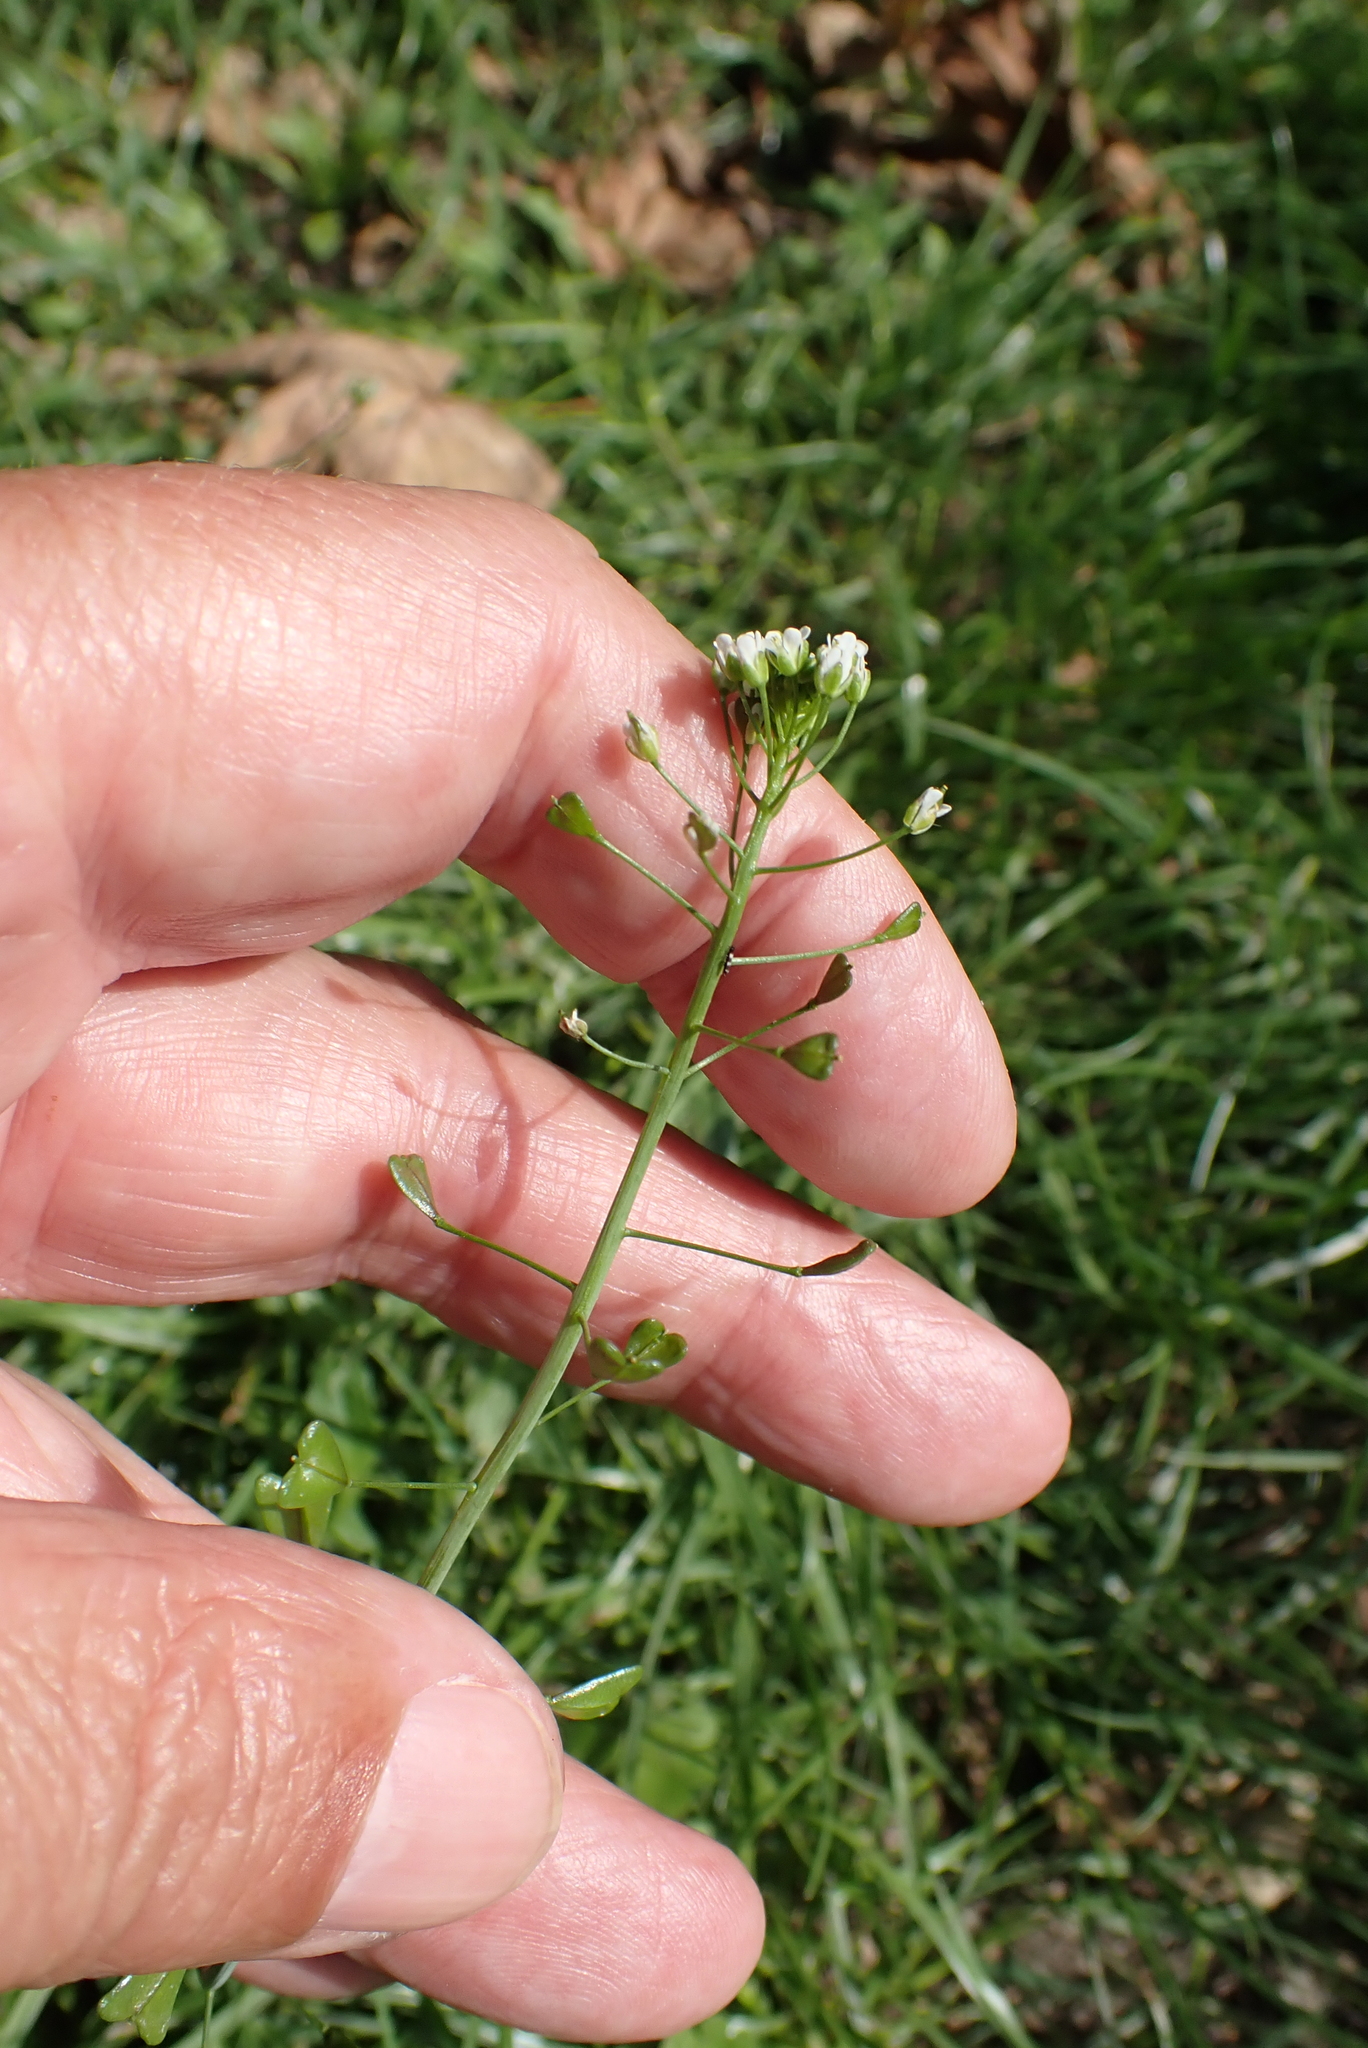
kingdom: Plantae
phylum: Tracheophyta
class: Magnoliopsida
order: Brassicales
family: Brassicaceae
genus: Capsella
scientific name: Capsella bursa-pastoris
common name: Shepherd's purse
